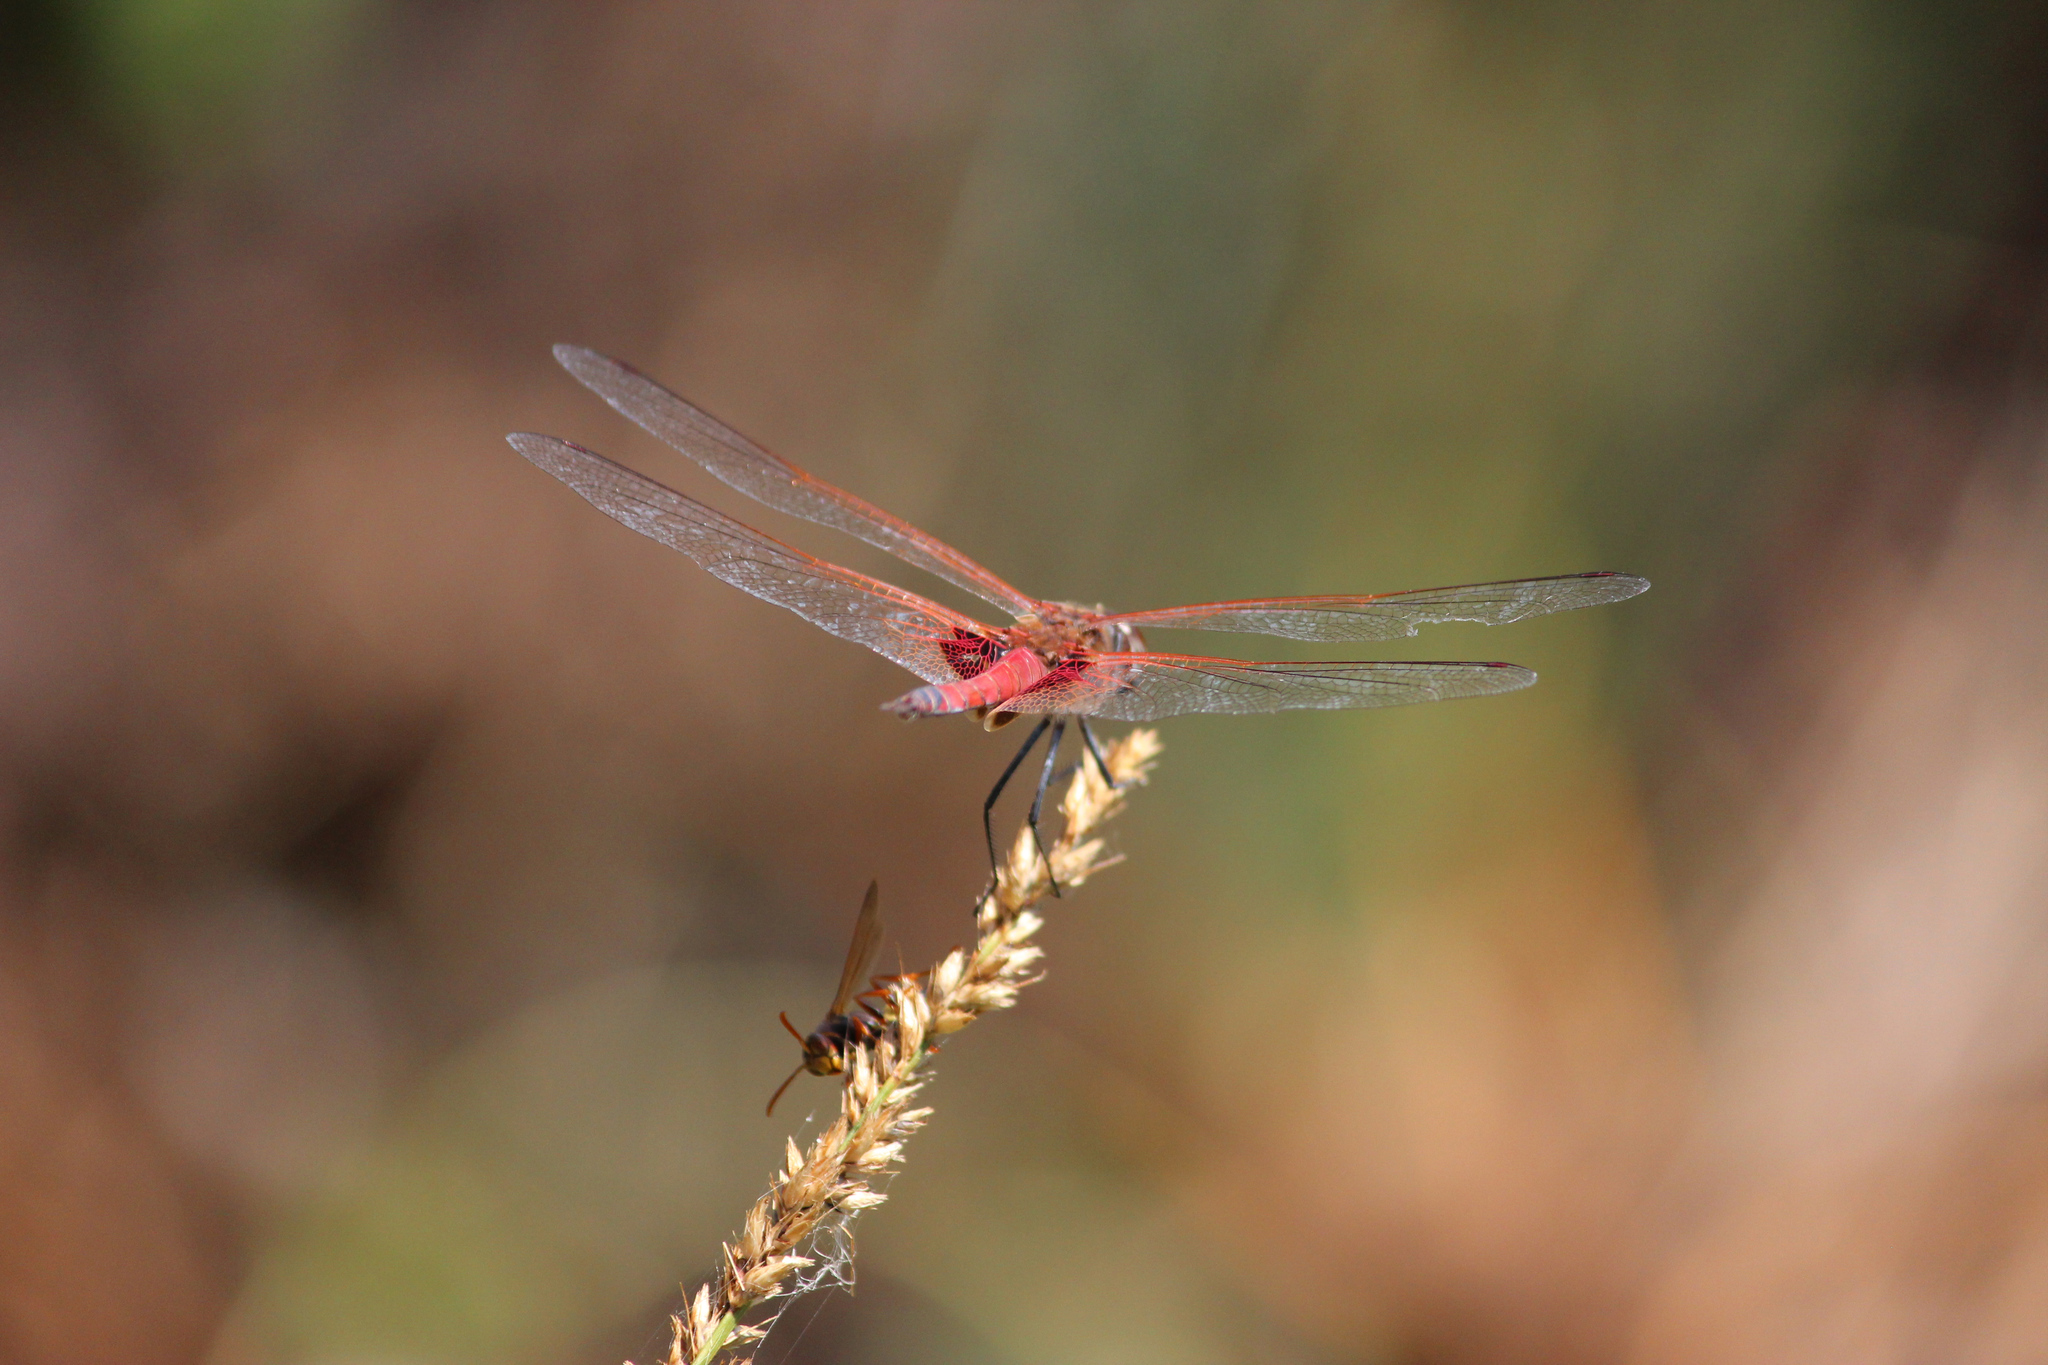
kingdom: Animalia
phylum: Arthropoda
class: Insecta
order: Odonata
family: Libellulidae
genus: Tramea
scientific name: Tramea loewii
